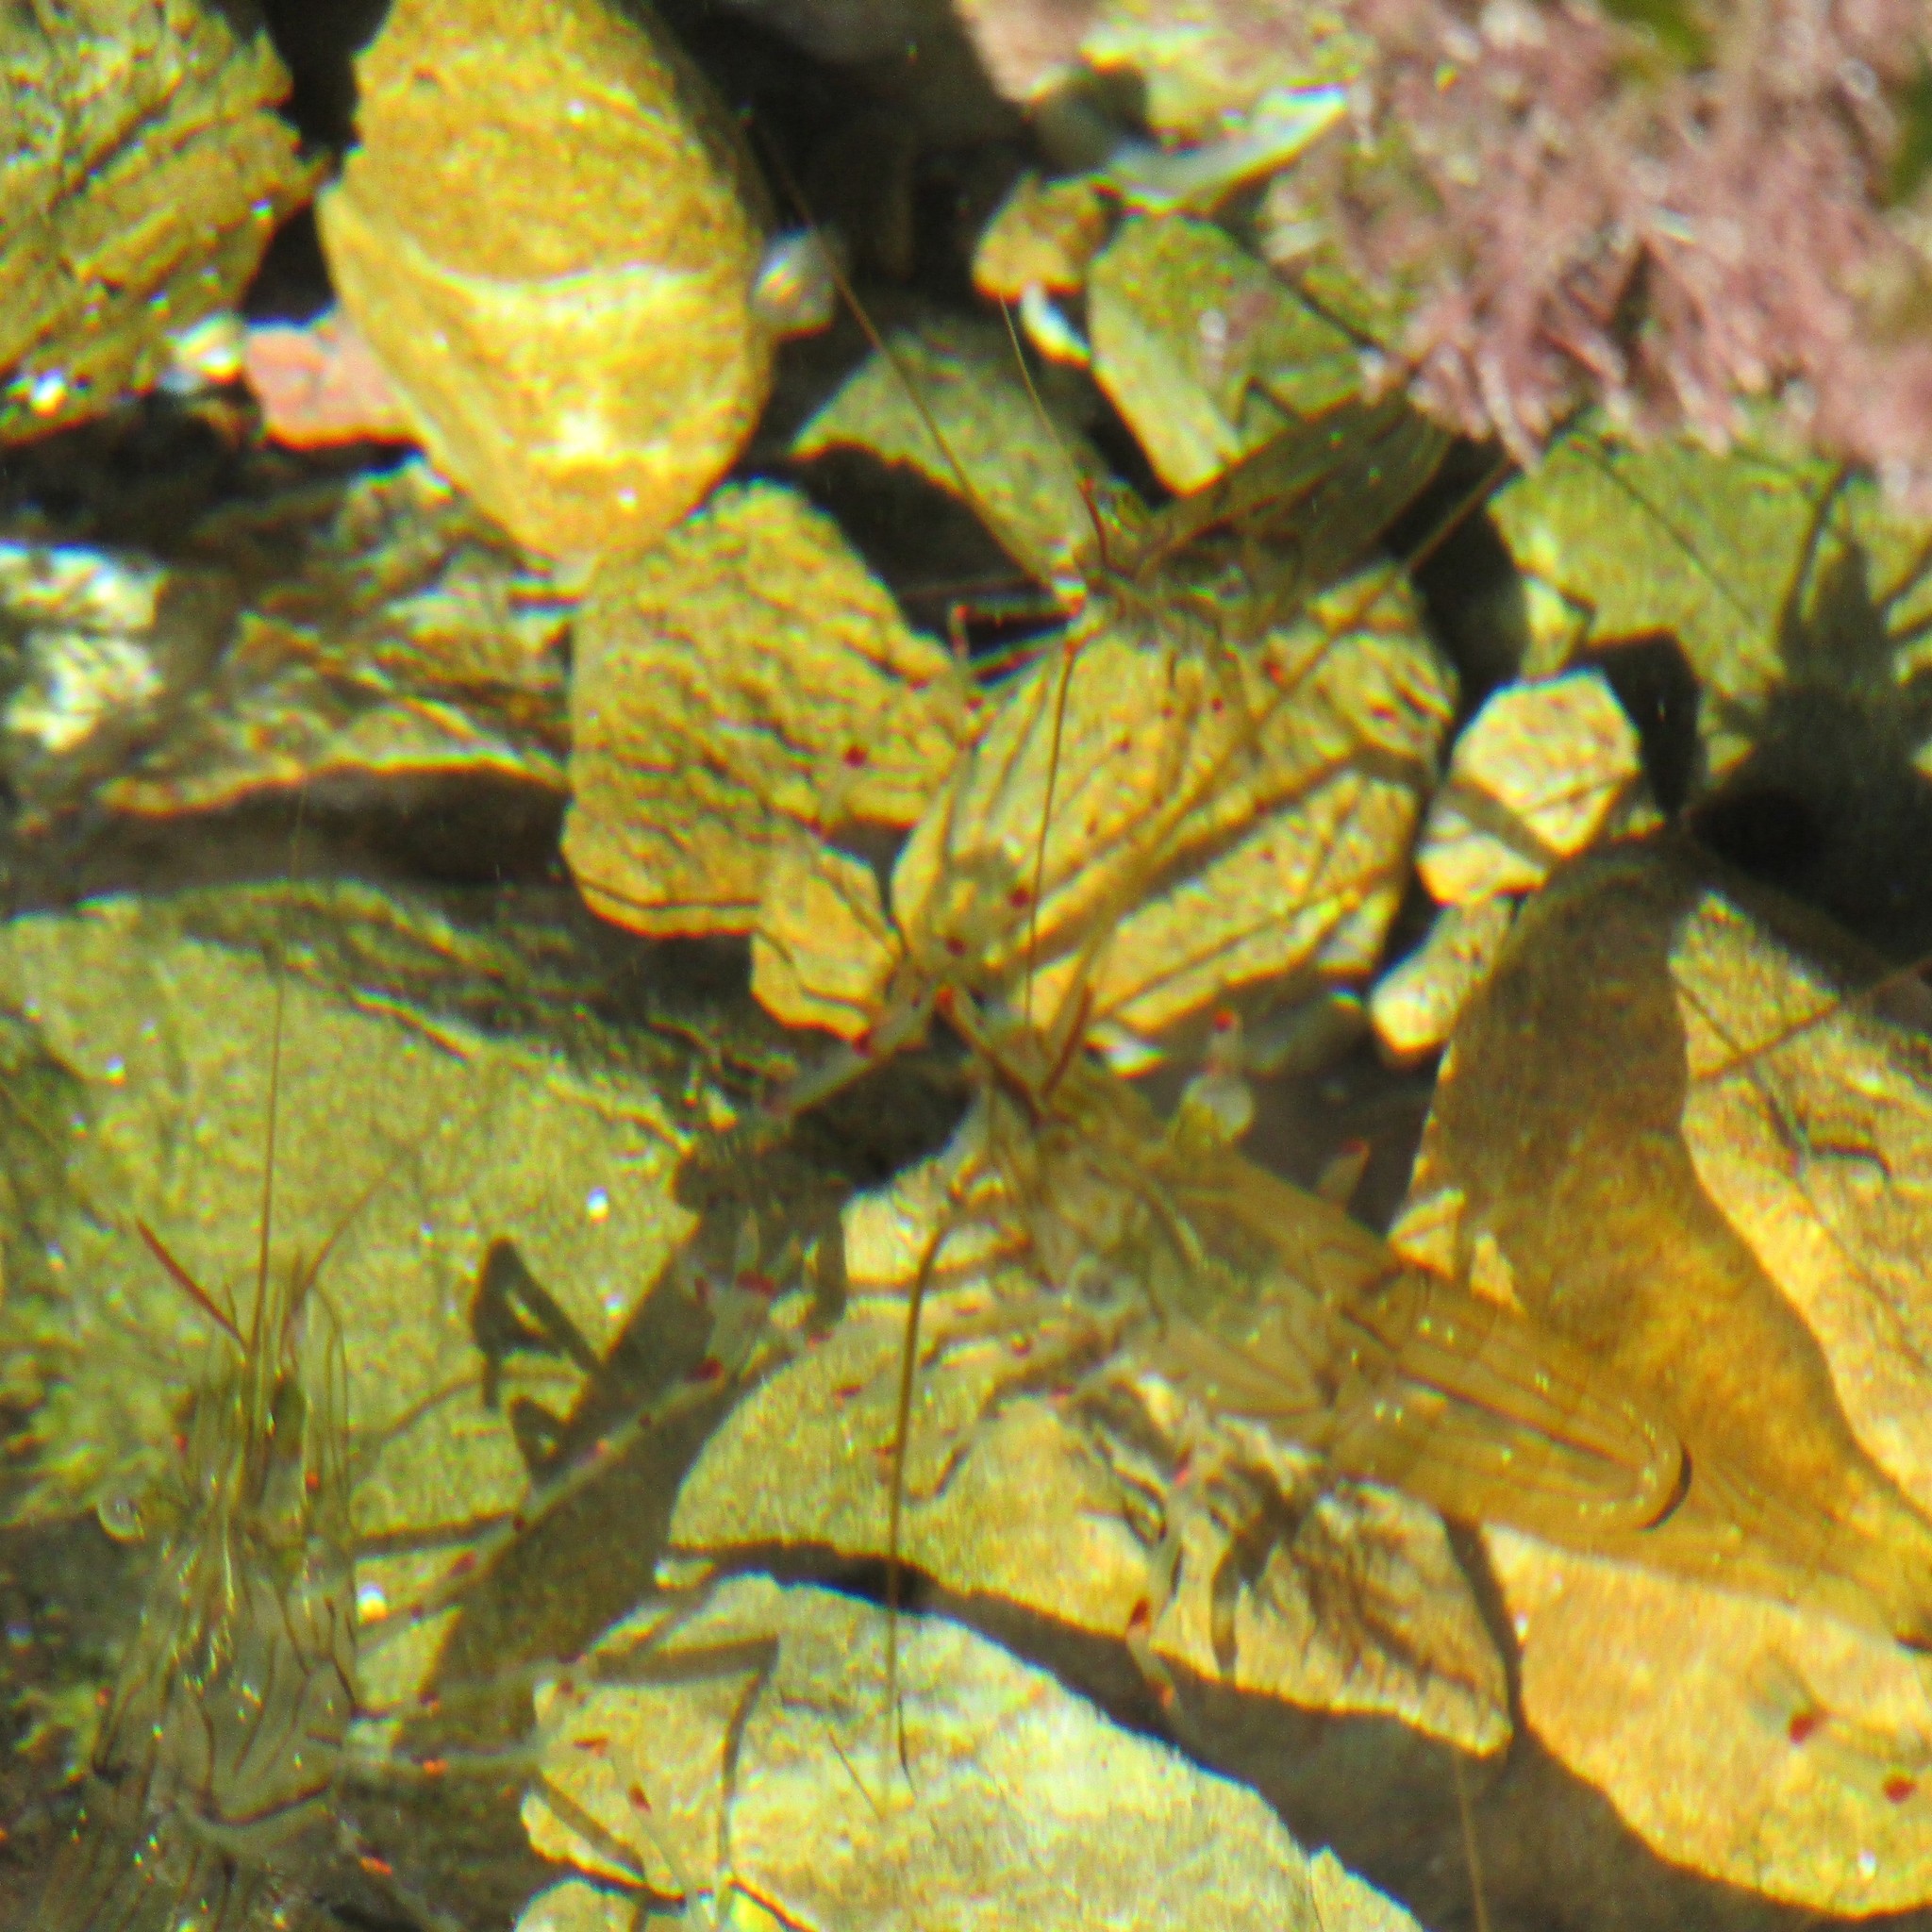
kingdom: Animalia
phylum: Arthropoda
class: Malacostraca
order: Decapoda
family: Palaemonidae
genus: Palaemon
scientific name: Palaemon affinis
